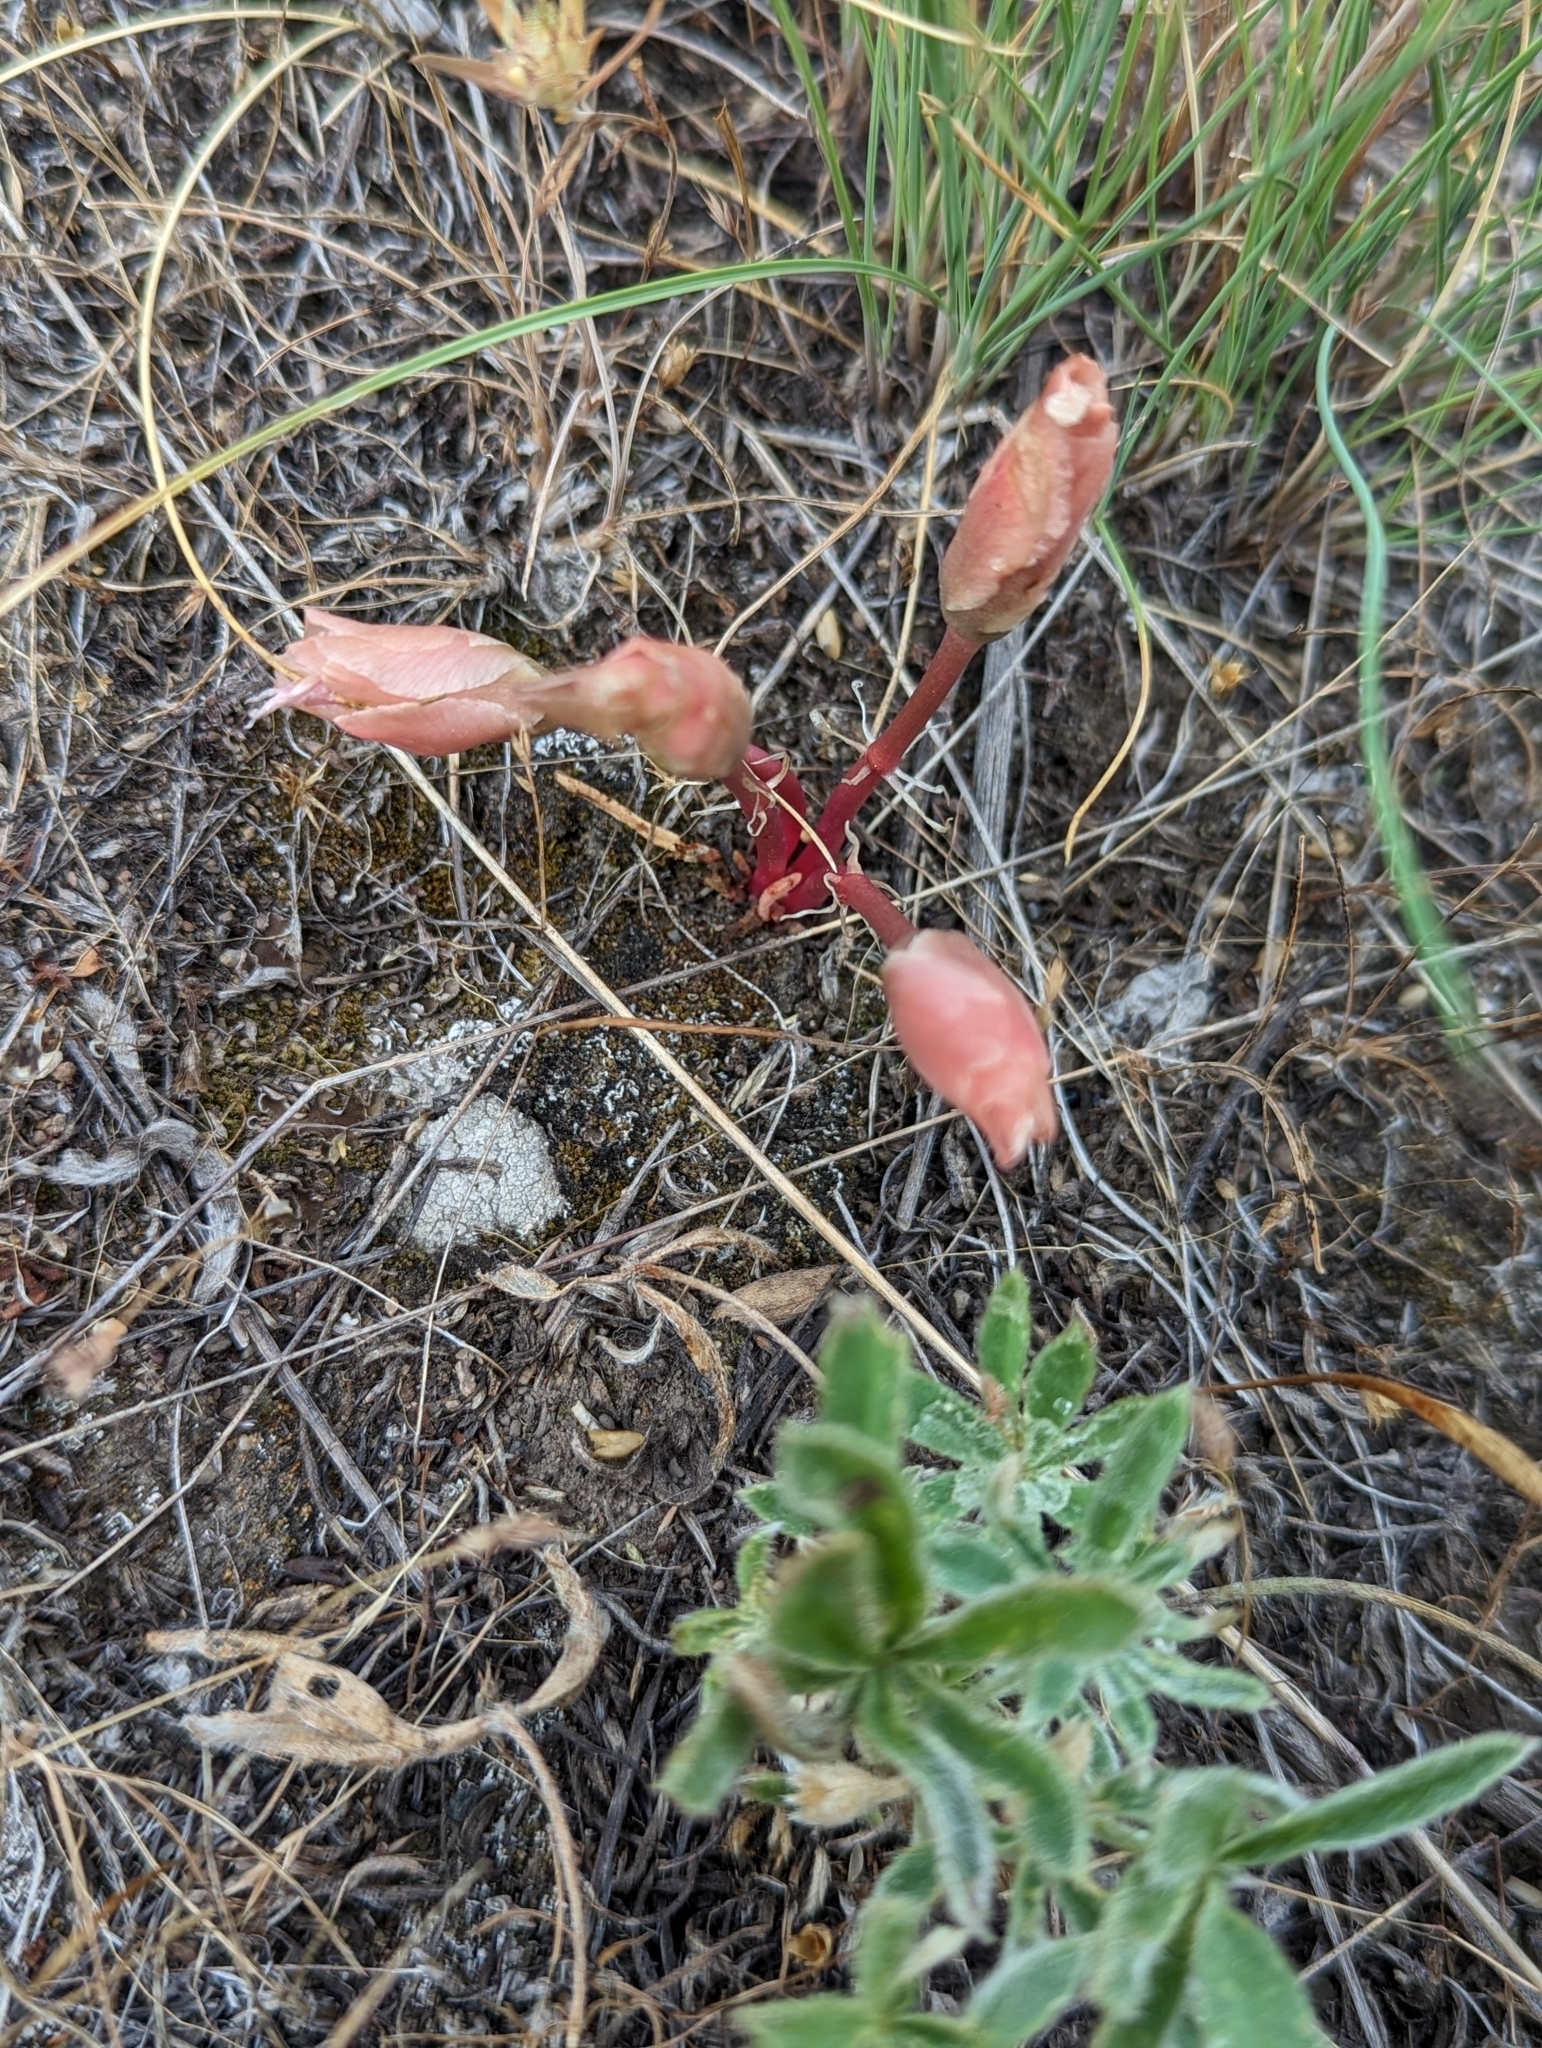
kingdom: Plantae
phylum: Tracheophyta
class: Magnoliopsida
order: Caryophyllales
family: Montiaceae
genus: Lewisia
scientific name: Lewisia rediviva
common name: Bitter-root
